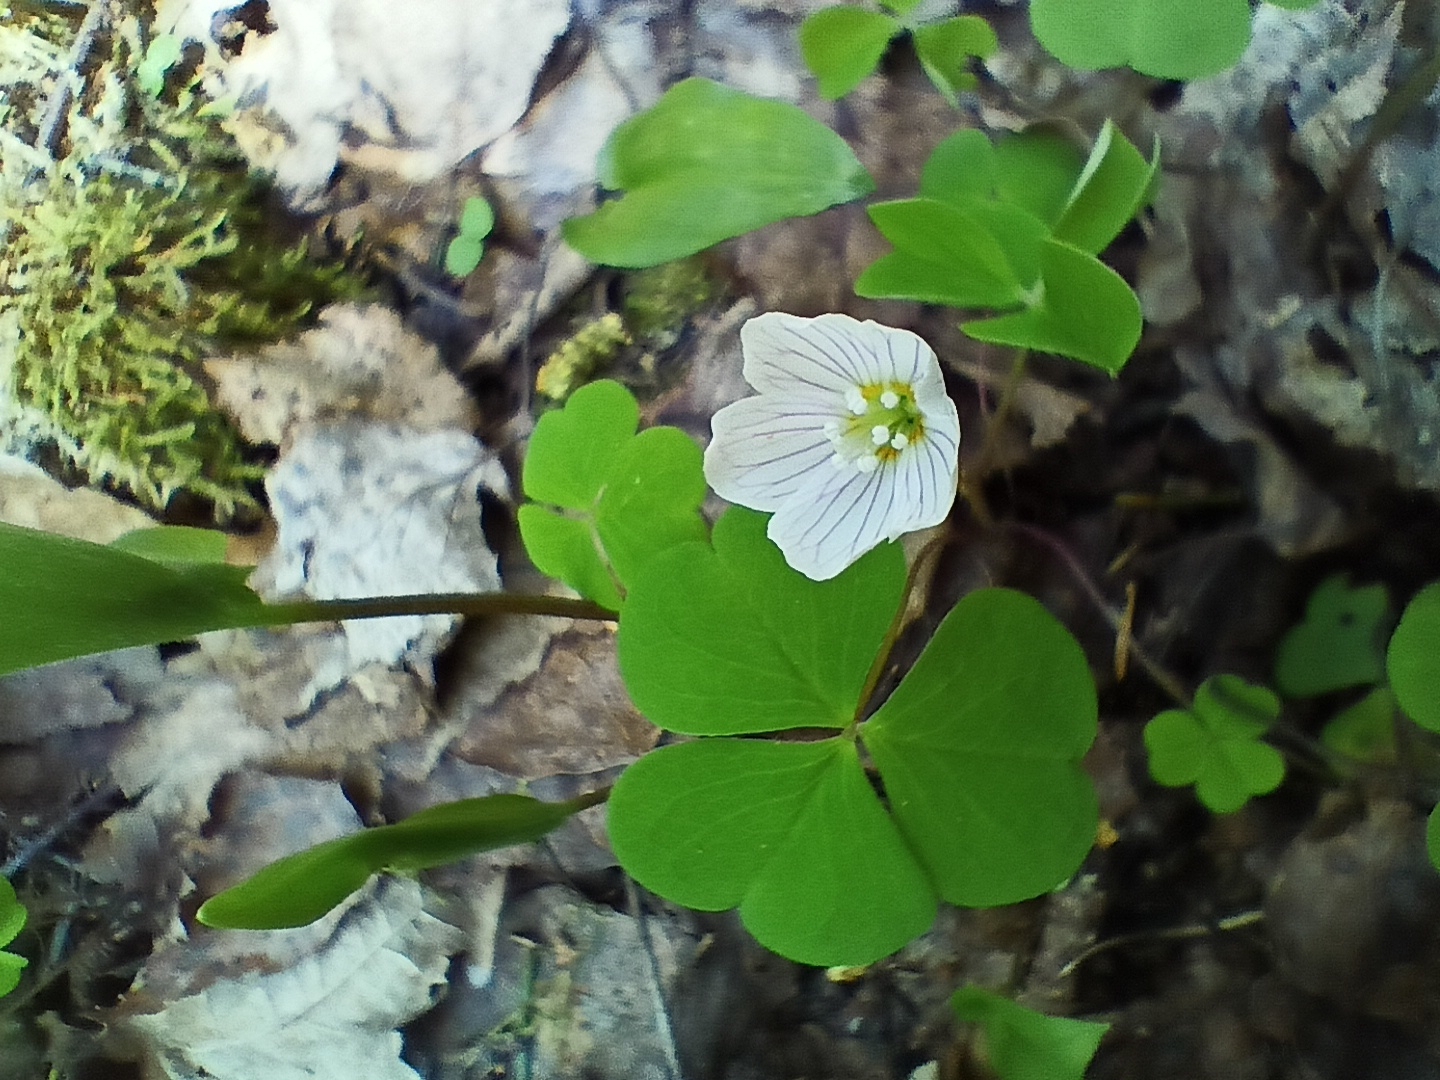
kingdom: Plantae
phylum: Tracheophyta
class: Magnoliopsida
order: Oxalidales
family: Oxalidaceae
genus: Oxalis
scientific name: Oxalis acetosella
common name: Wood-sorrel
